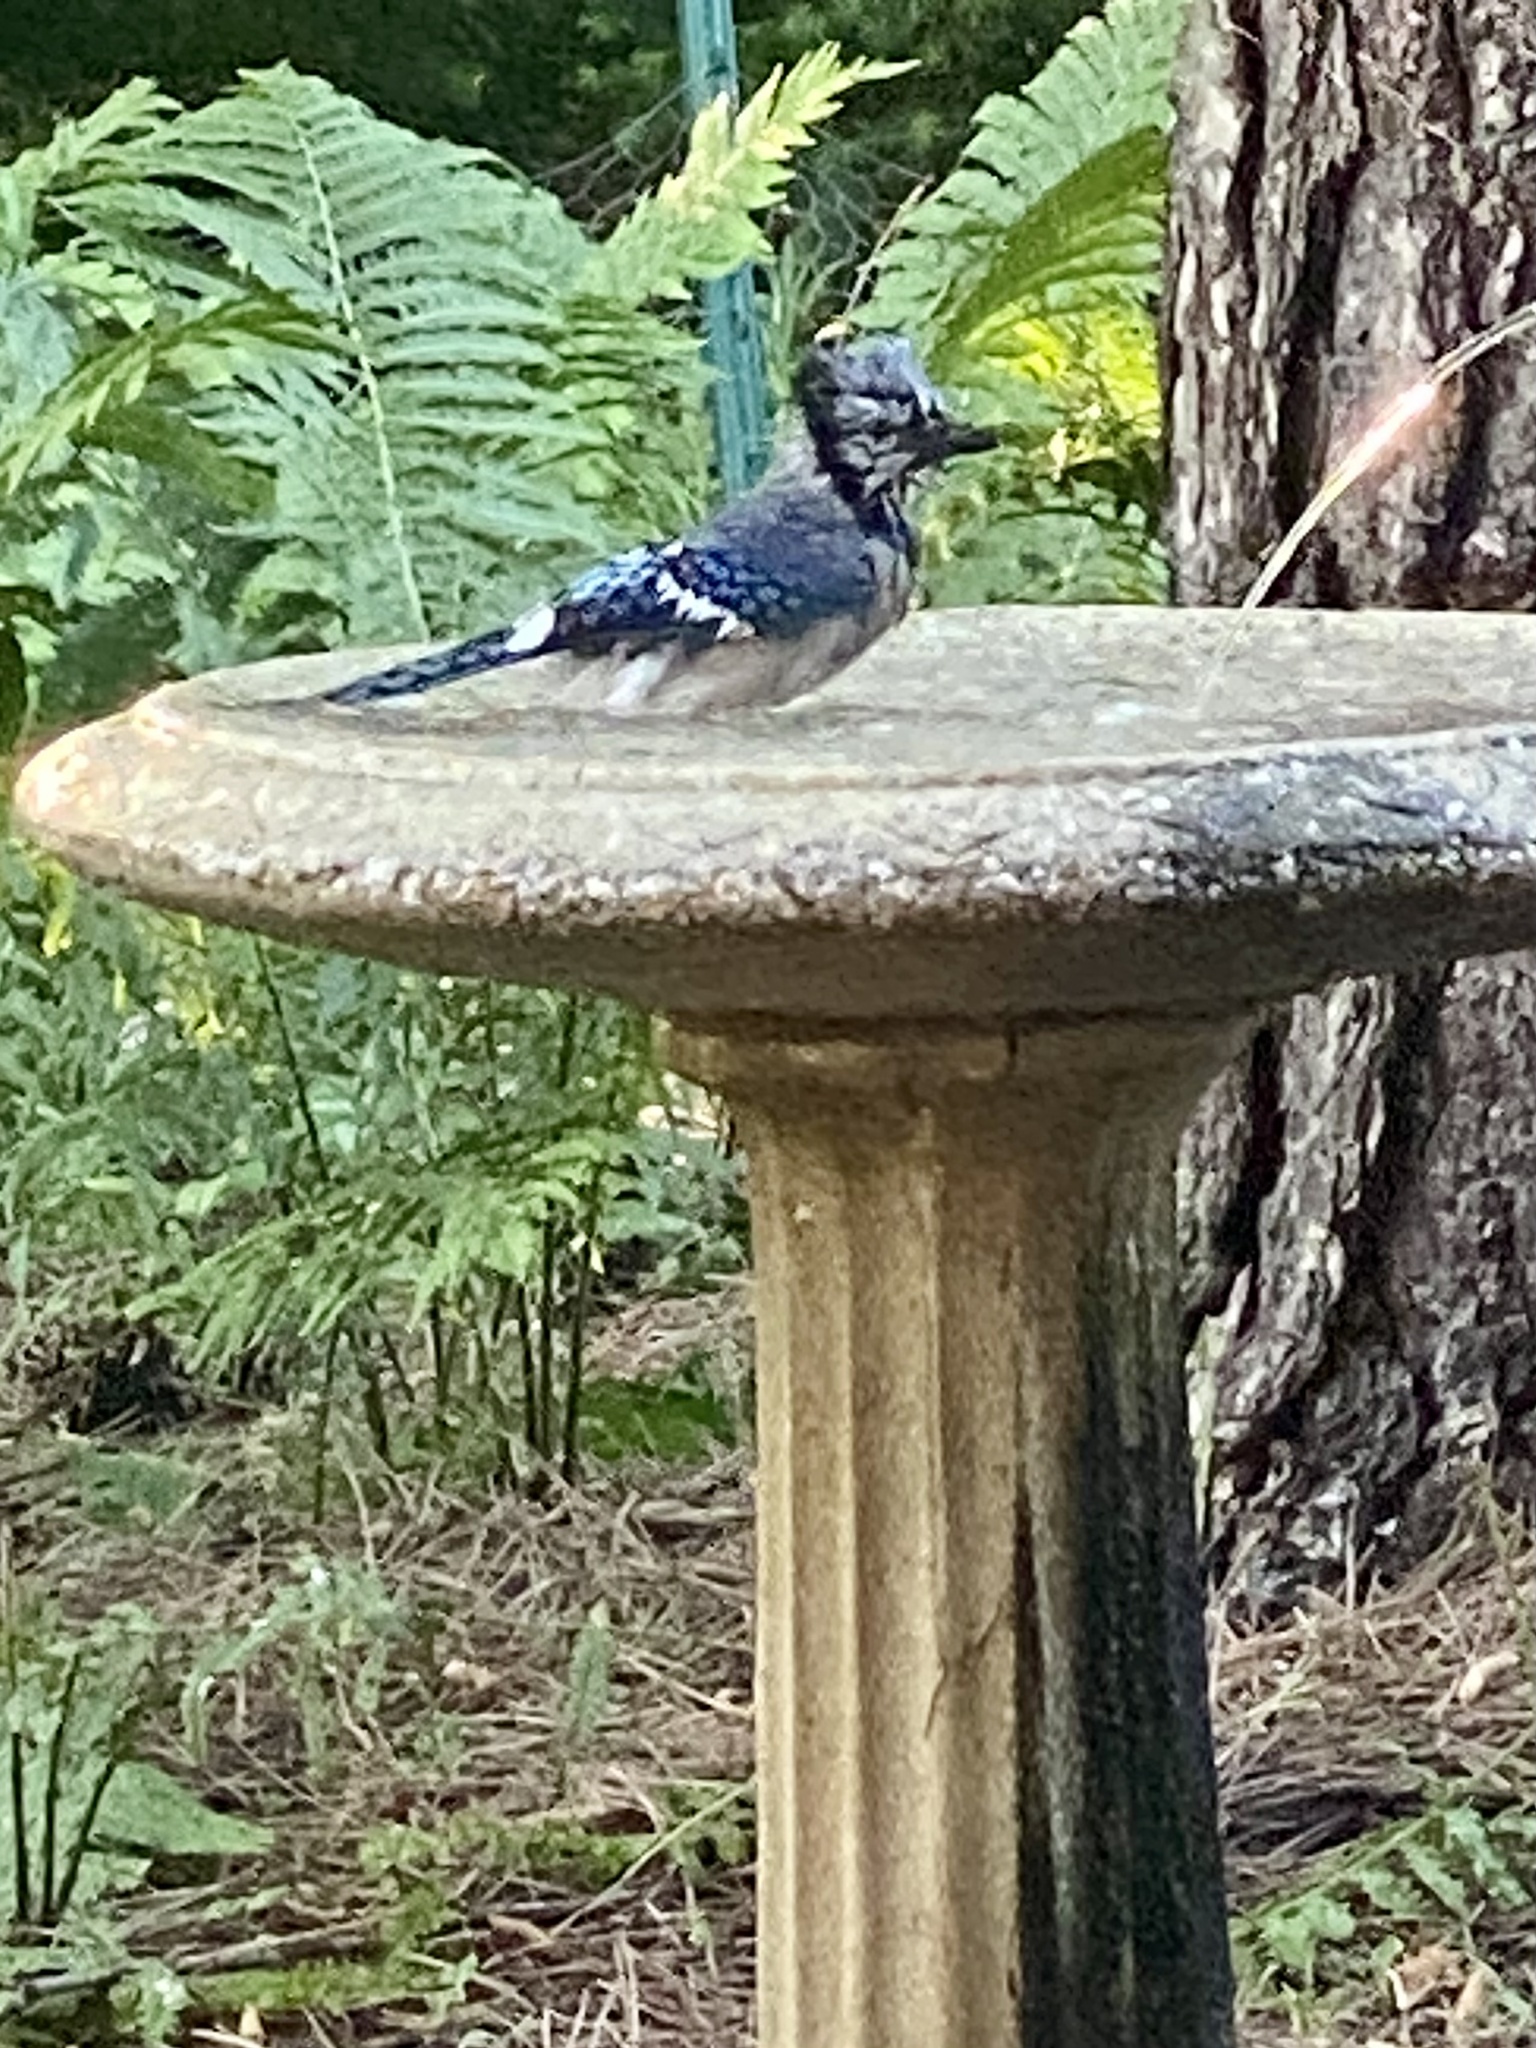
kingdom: Animalia
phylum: Chordata
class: Aves
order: Passeriformes
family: Corvidae
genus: Cyanocitta
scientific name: Cyanocitta cristata
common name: Blue jay
